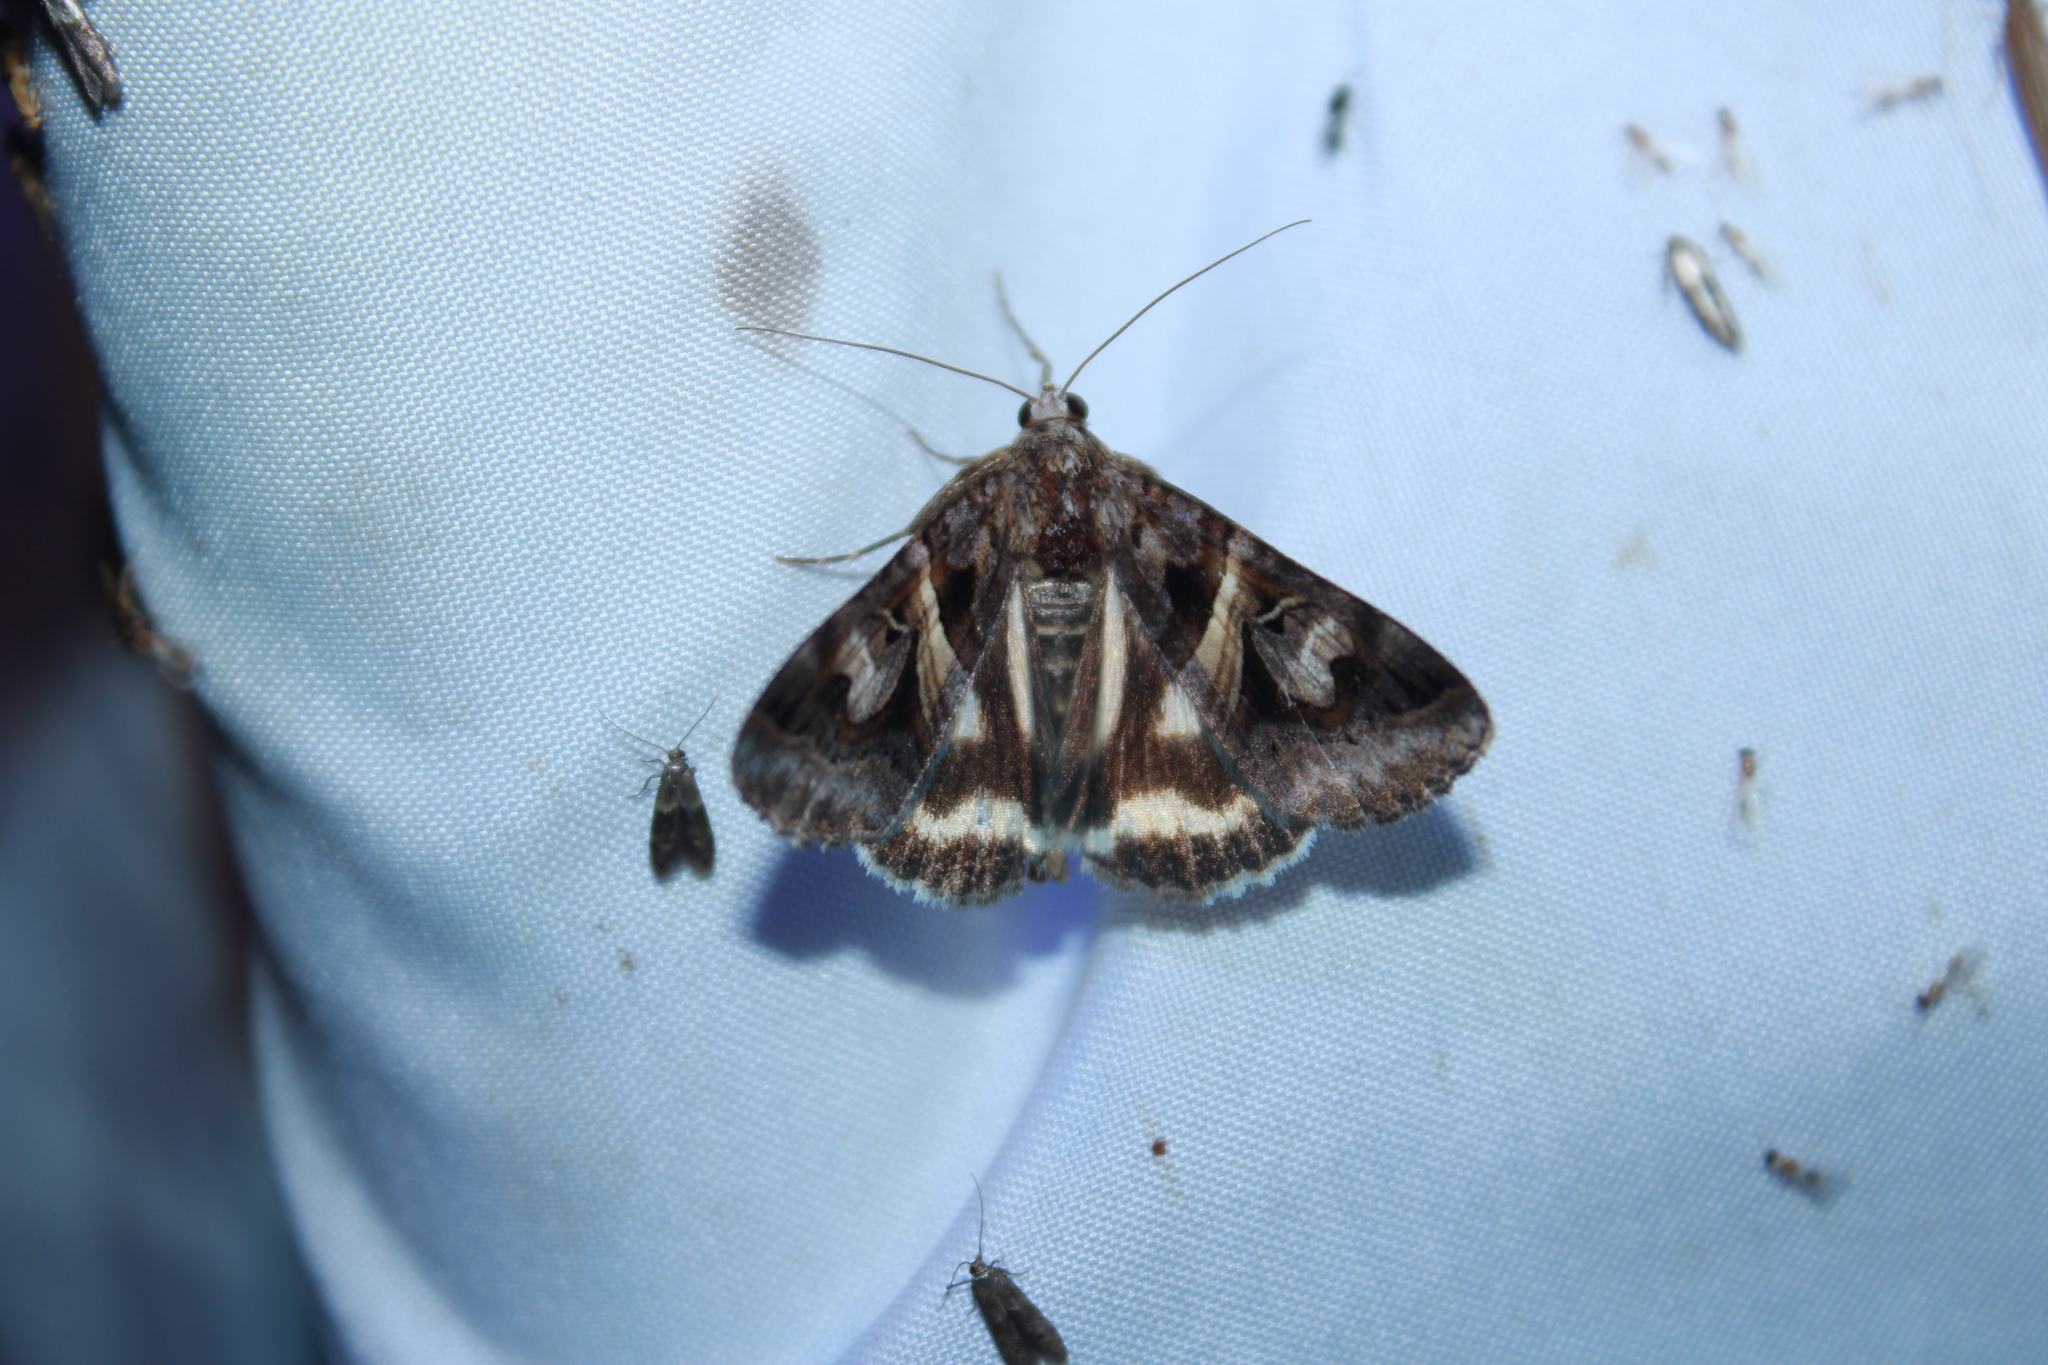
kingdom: Animalia
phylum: Arthropoda
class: Insecta
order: Lepidoptera
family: Erebidae
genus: Drasteria
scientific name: Drasteria grandirena
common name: Figure-seven moth
